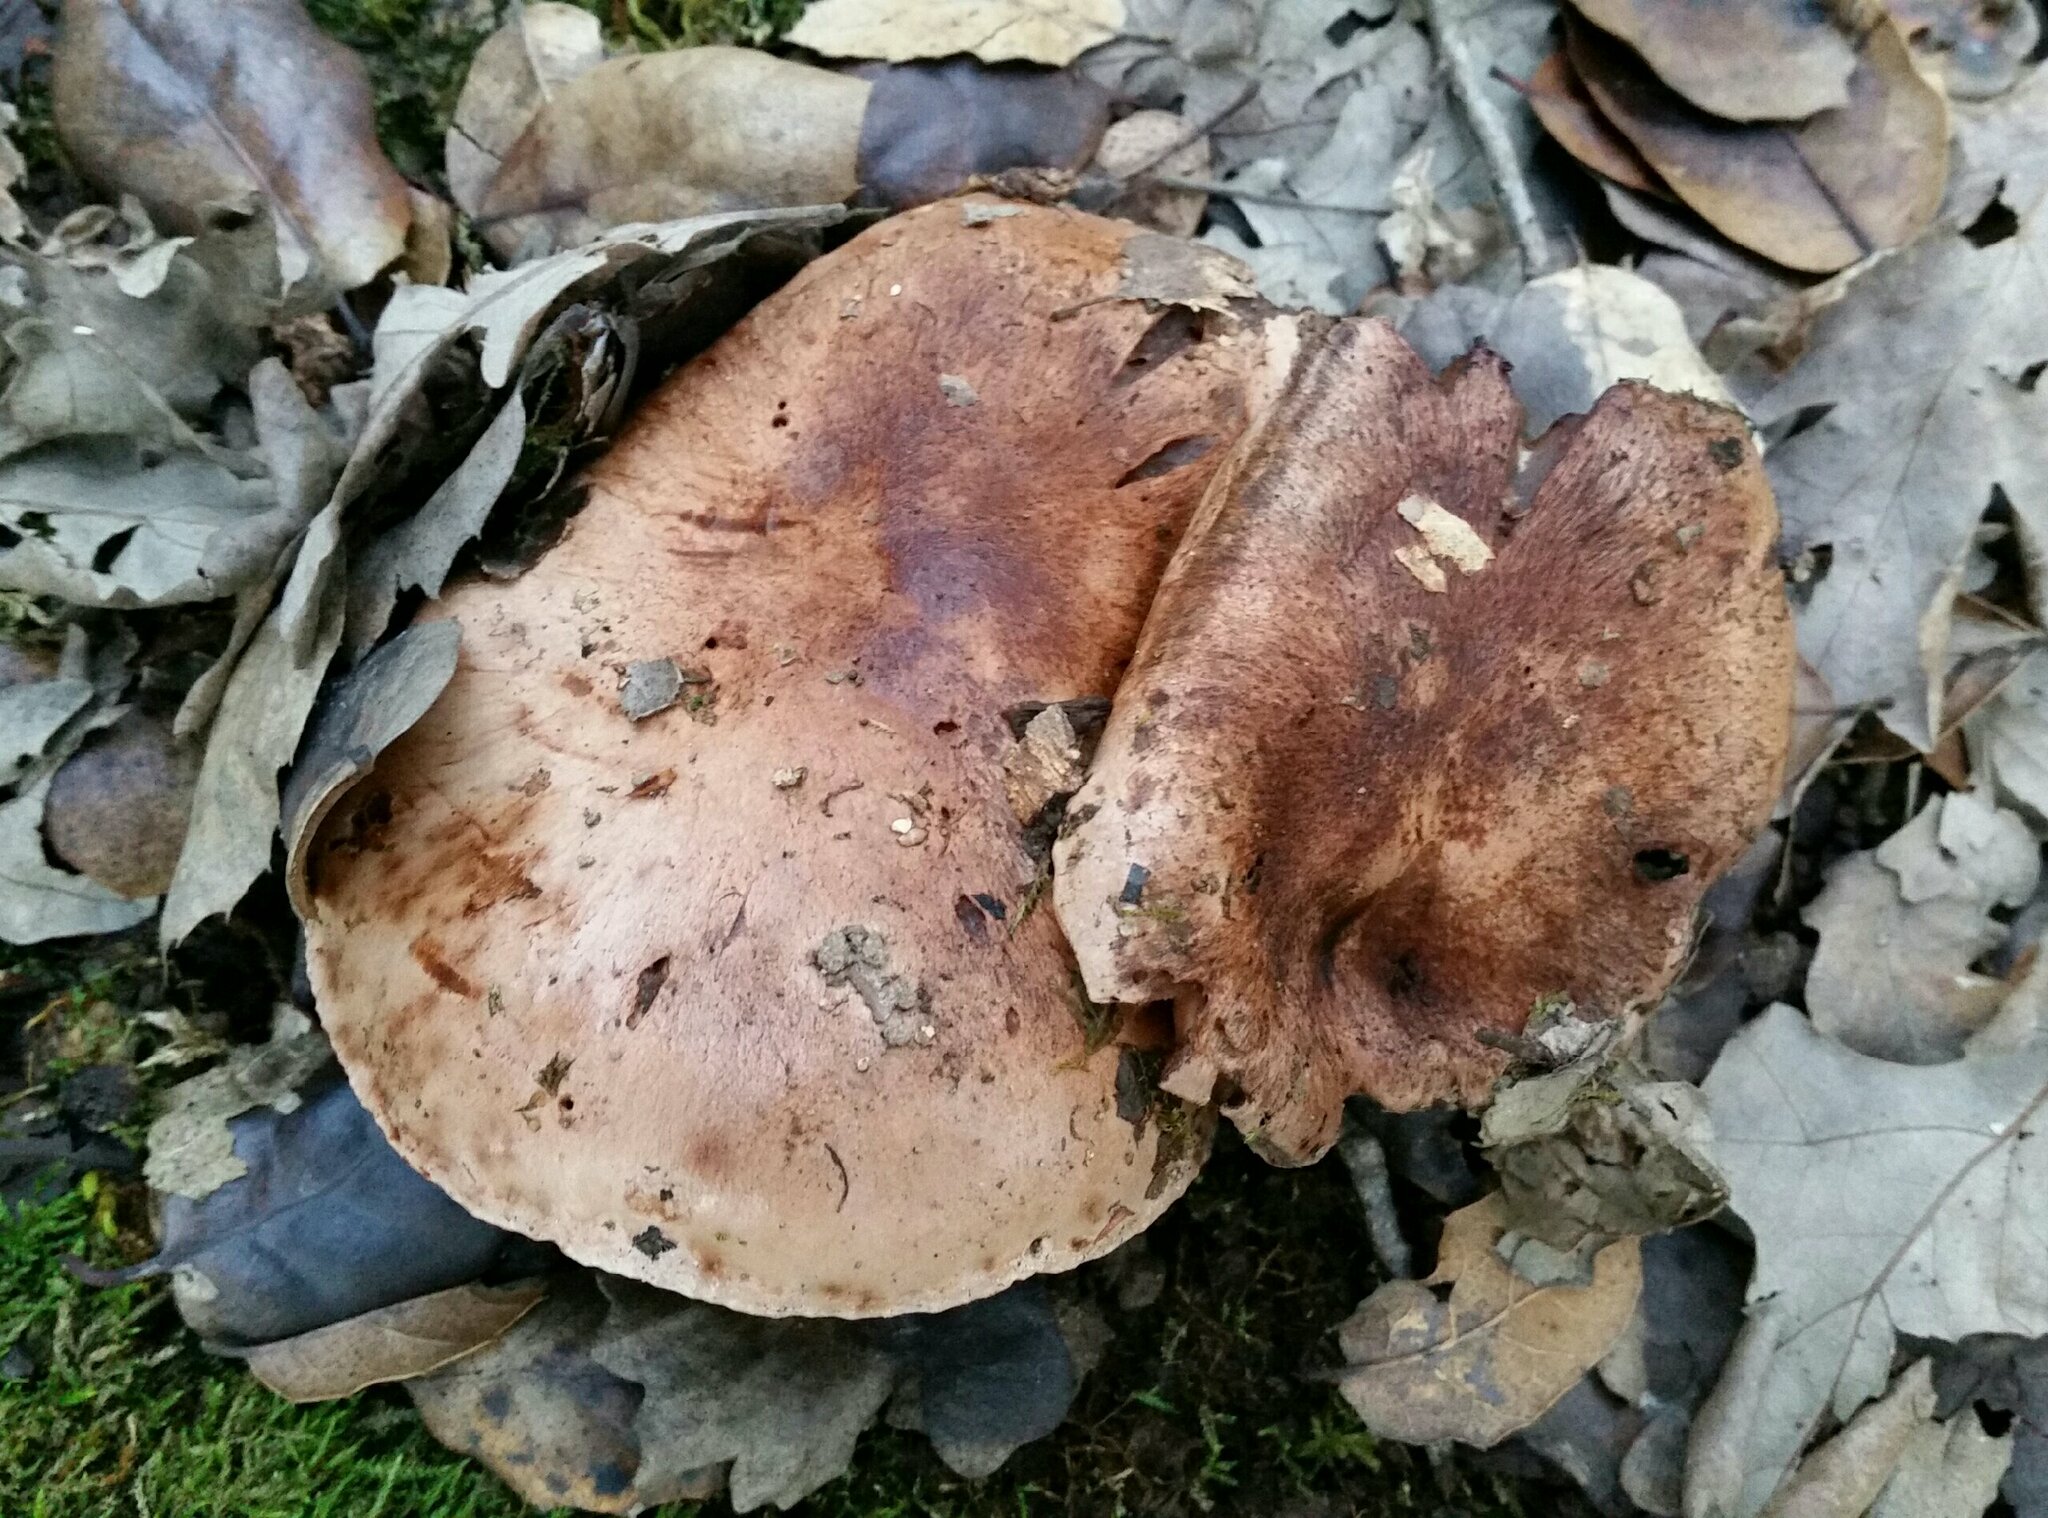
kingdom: Fungi
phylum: Basidiomycota
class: Agaricomycetes
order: Agaricales
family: Tricholomataceae
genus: Melanoleuca
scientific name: Melanoleuca dryophila
